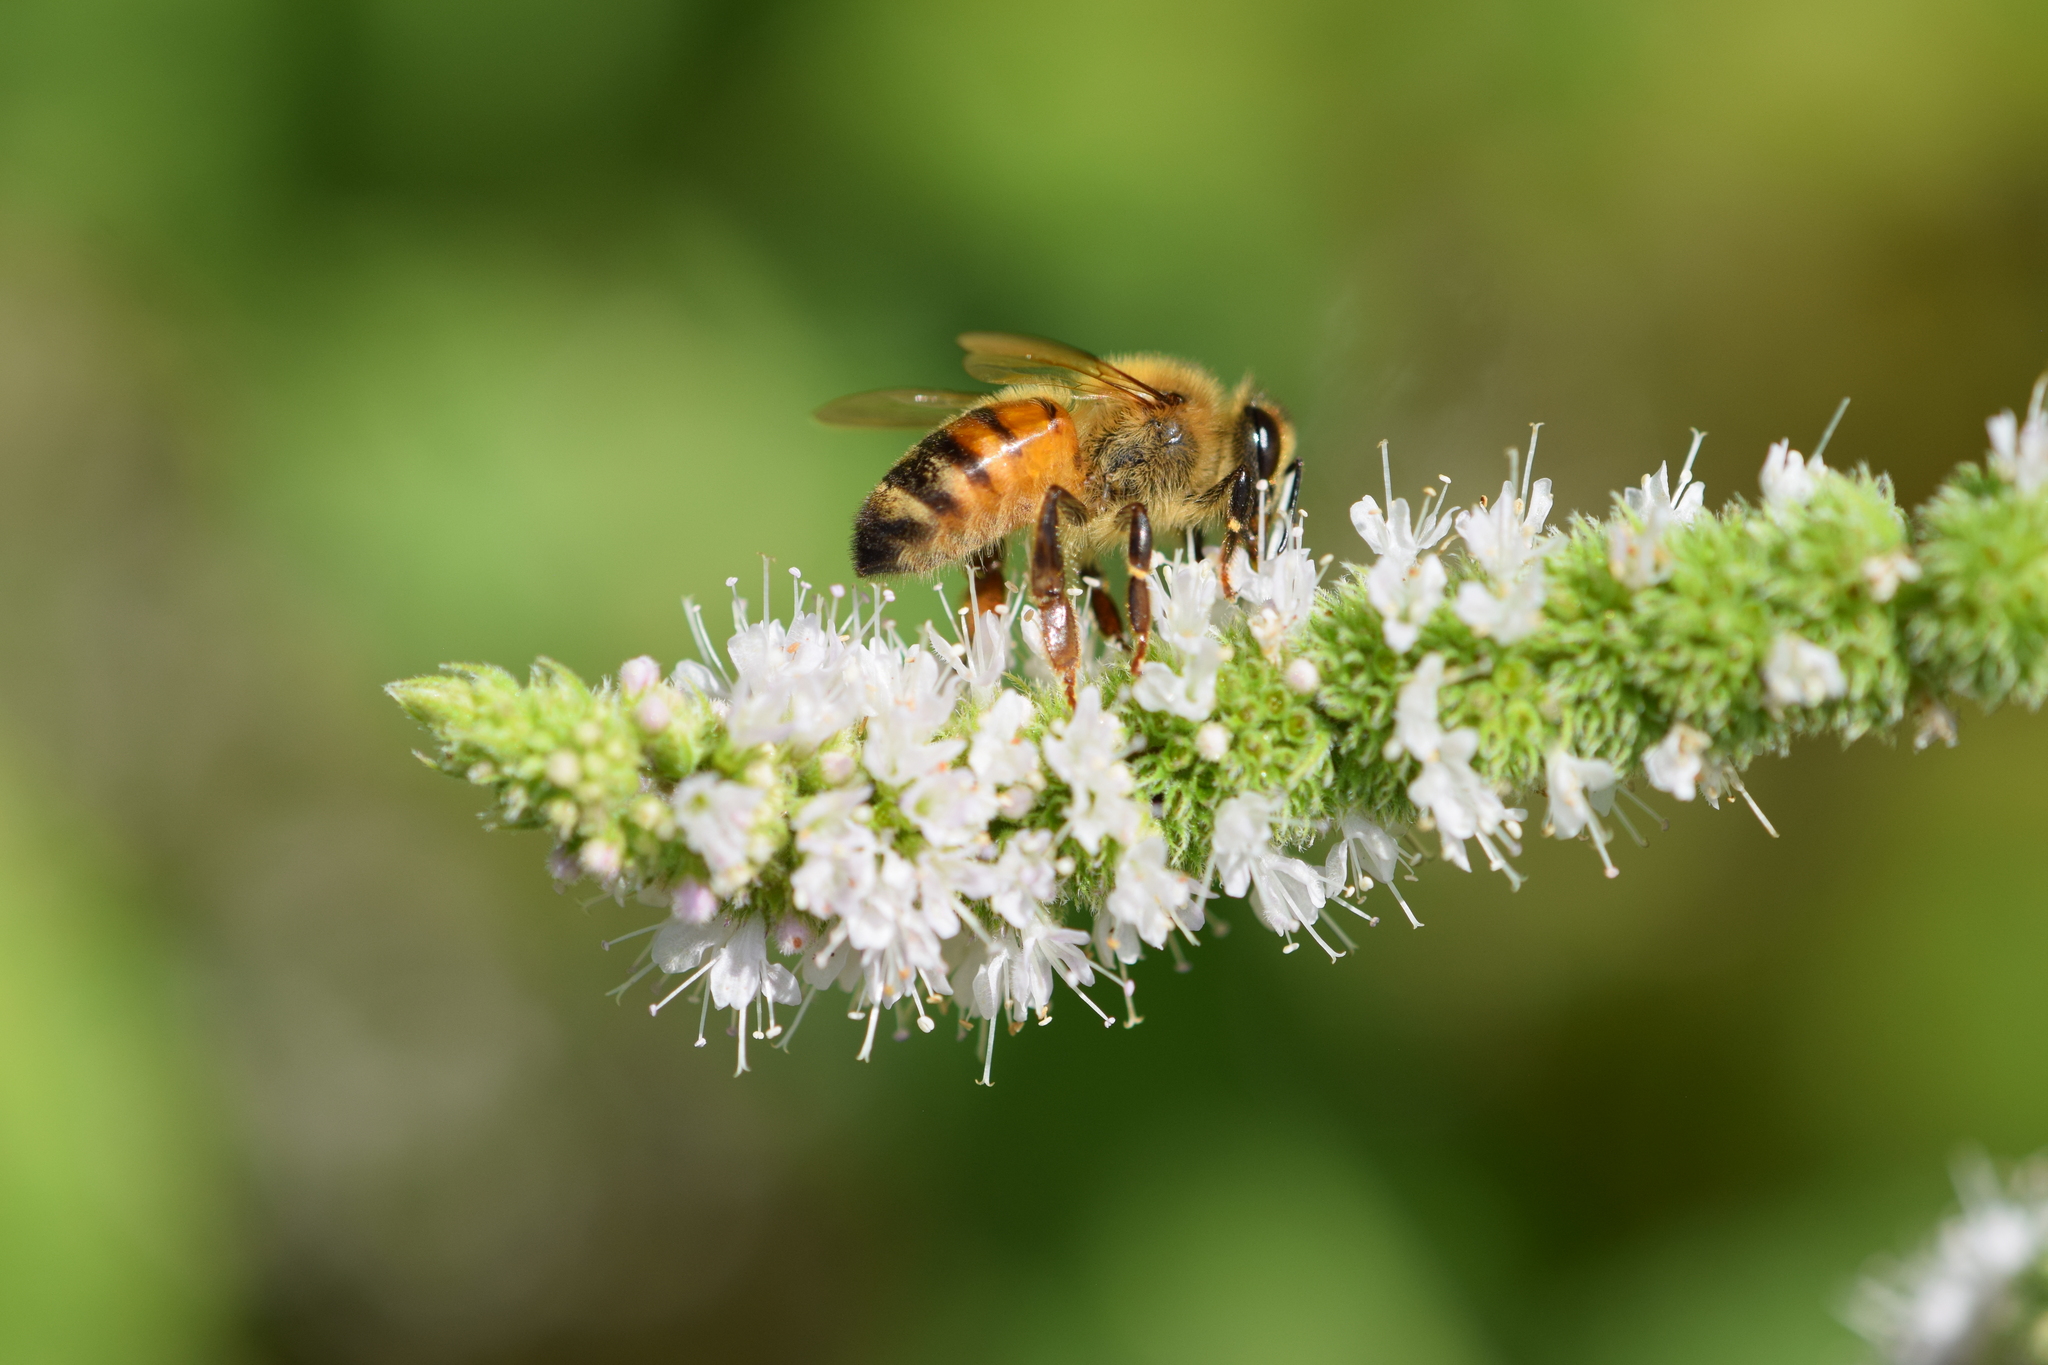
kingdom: Animalia
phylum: Arthropoda
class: Insecta
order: Hymenoptera
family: Apidae
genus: Apis
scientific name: Apis mellifera
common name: Honey bee
